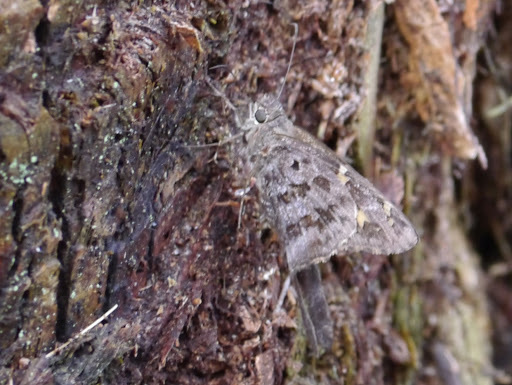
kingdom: Animalia
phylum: Arthropoda
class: Insecta
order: Lepidoptera
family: Hesperiidae
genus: Thorybes
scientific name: Thorybes
